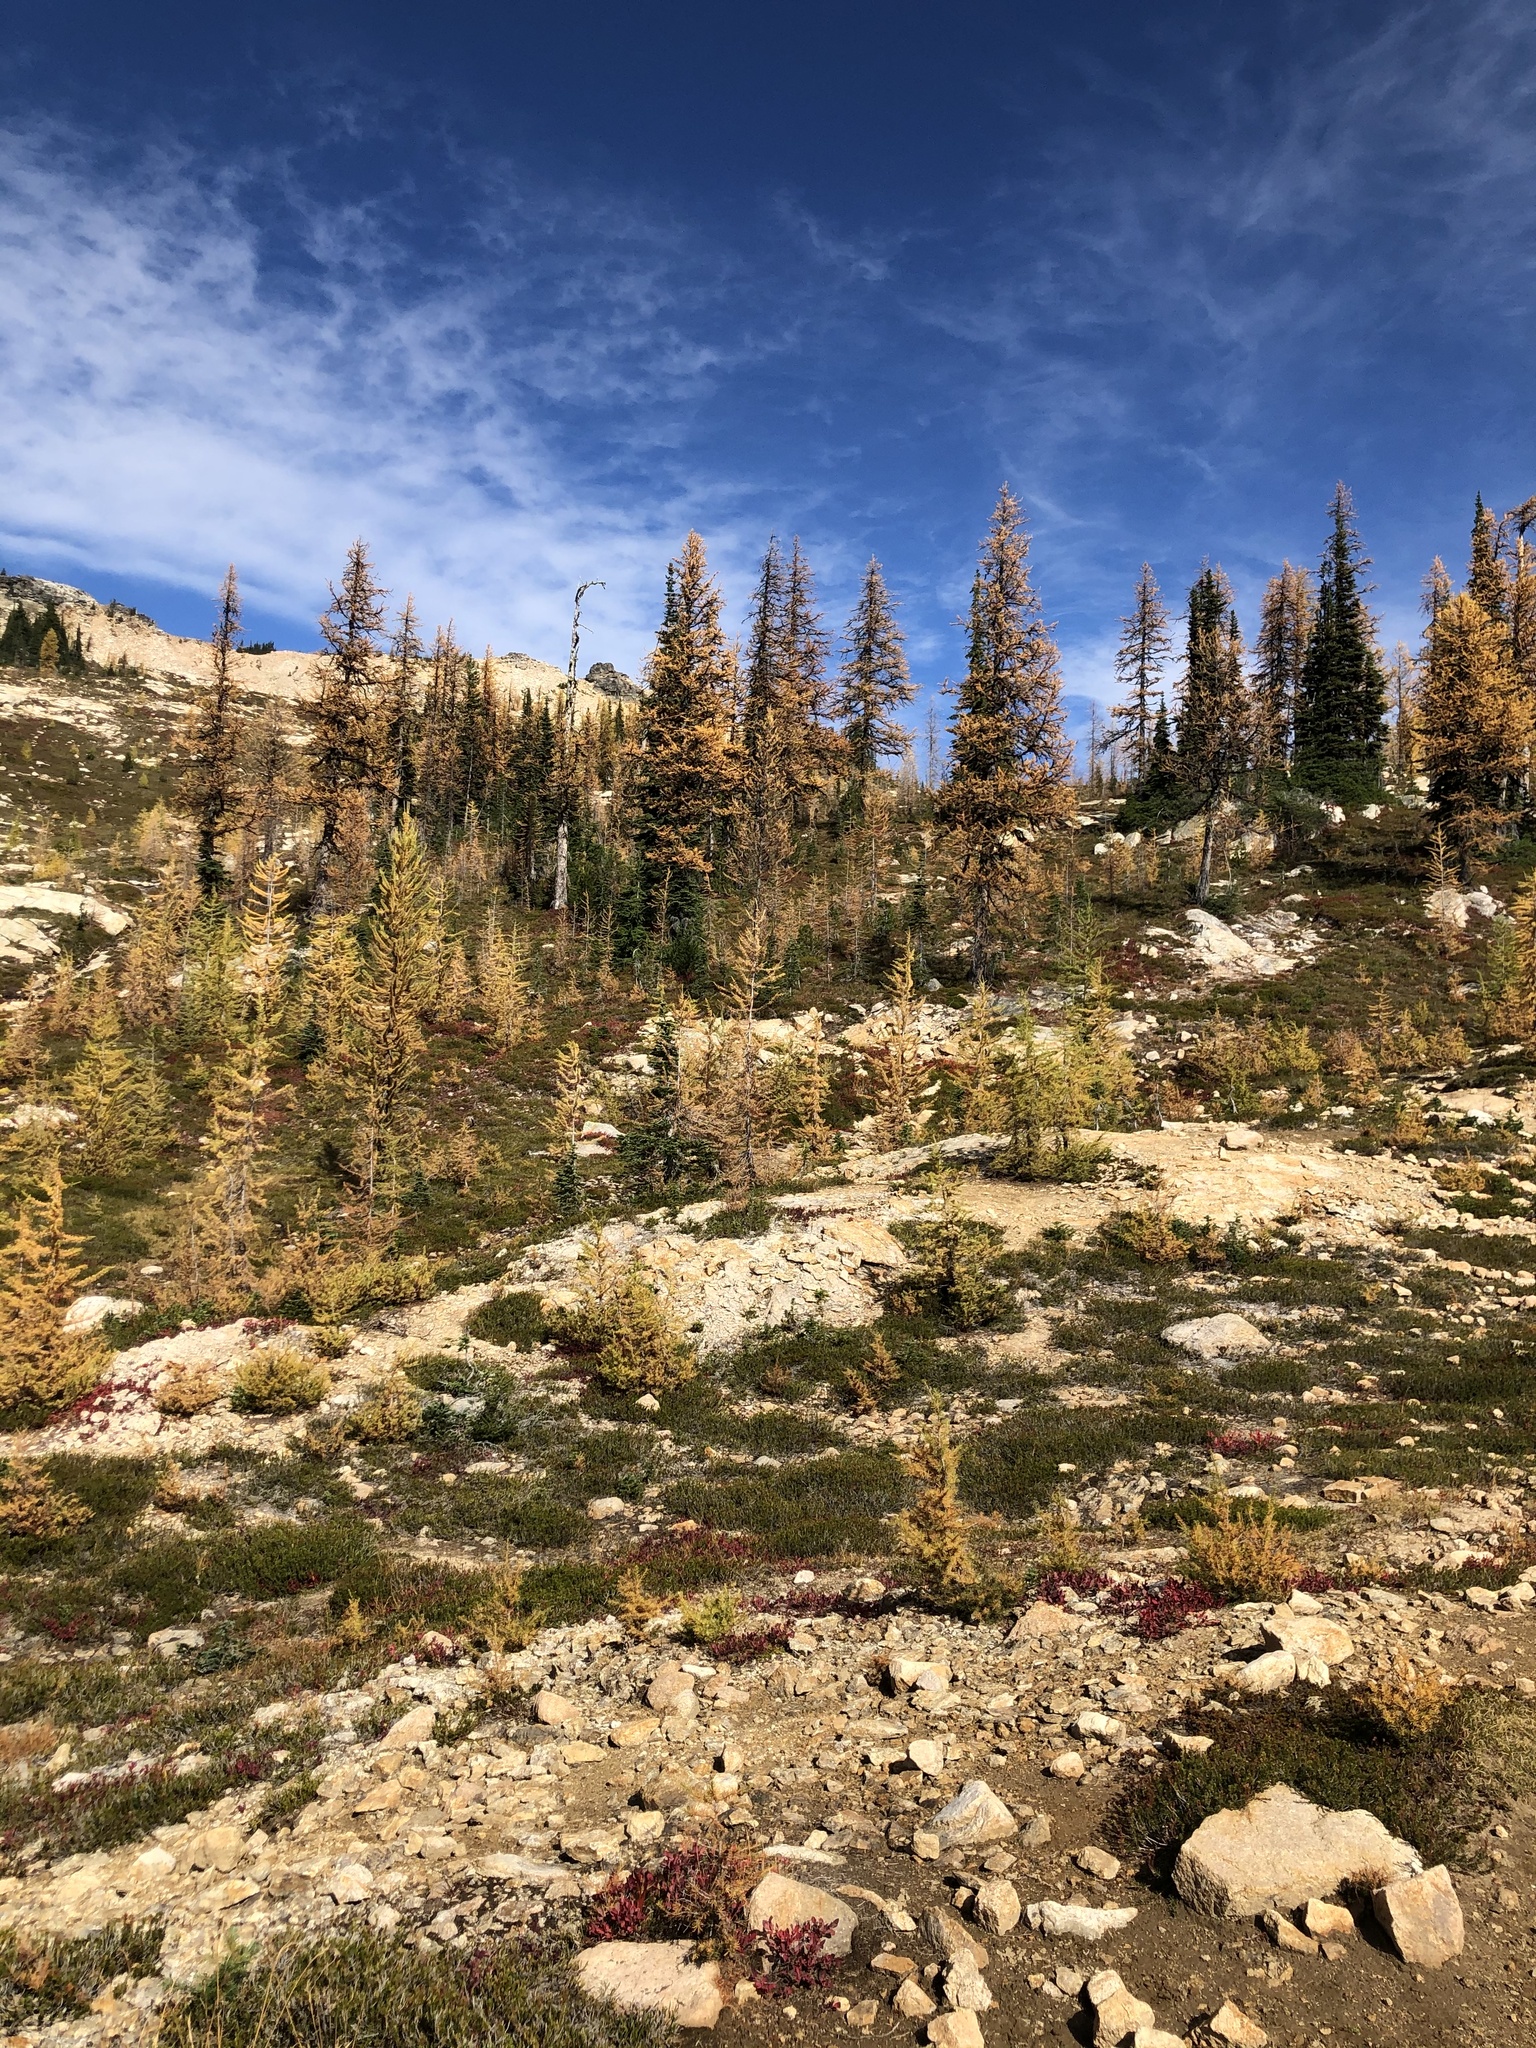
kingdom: Plantae
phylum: Tracheophyta
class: Pinopsida
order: Pinales
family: Pinaceae
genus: Larix
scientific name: Larix lyallii
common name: Alpine larch
